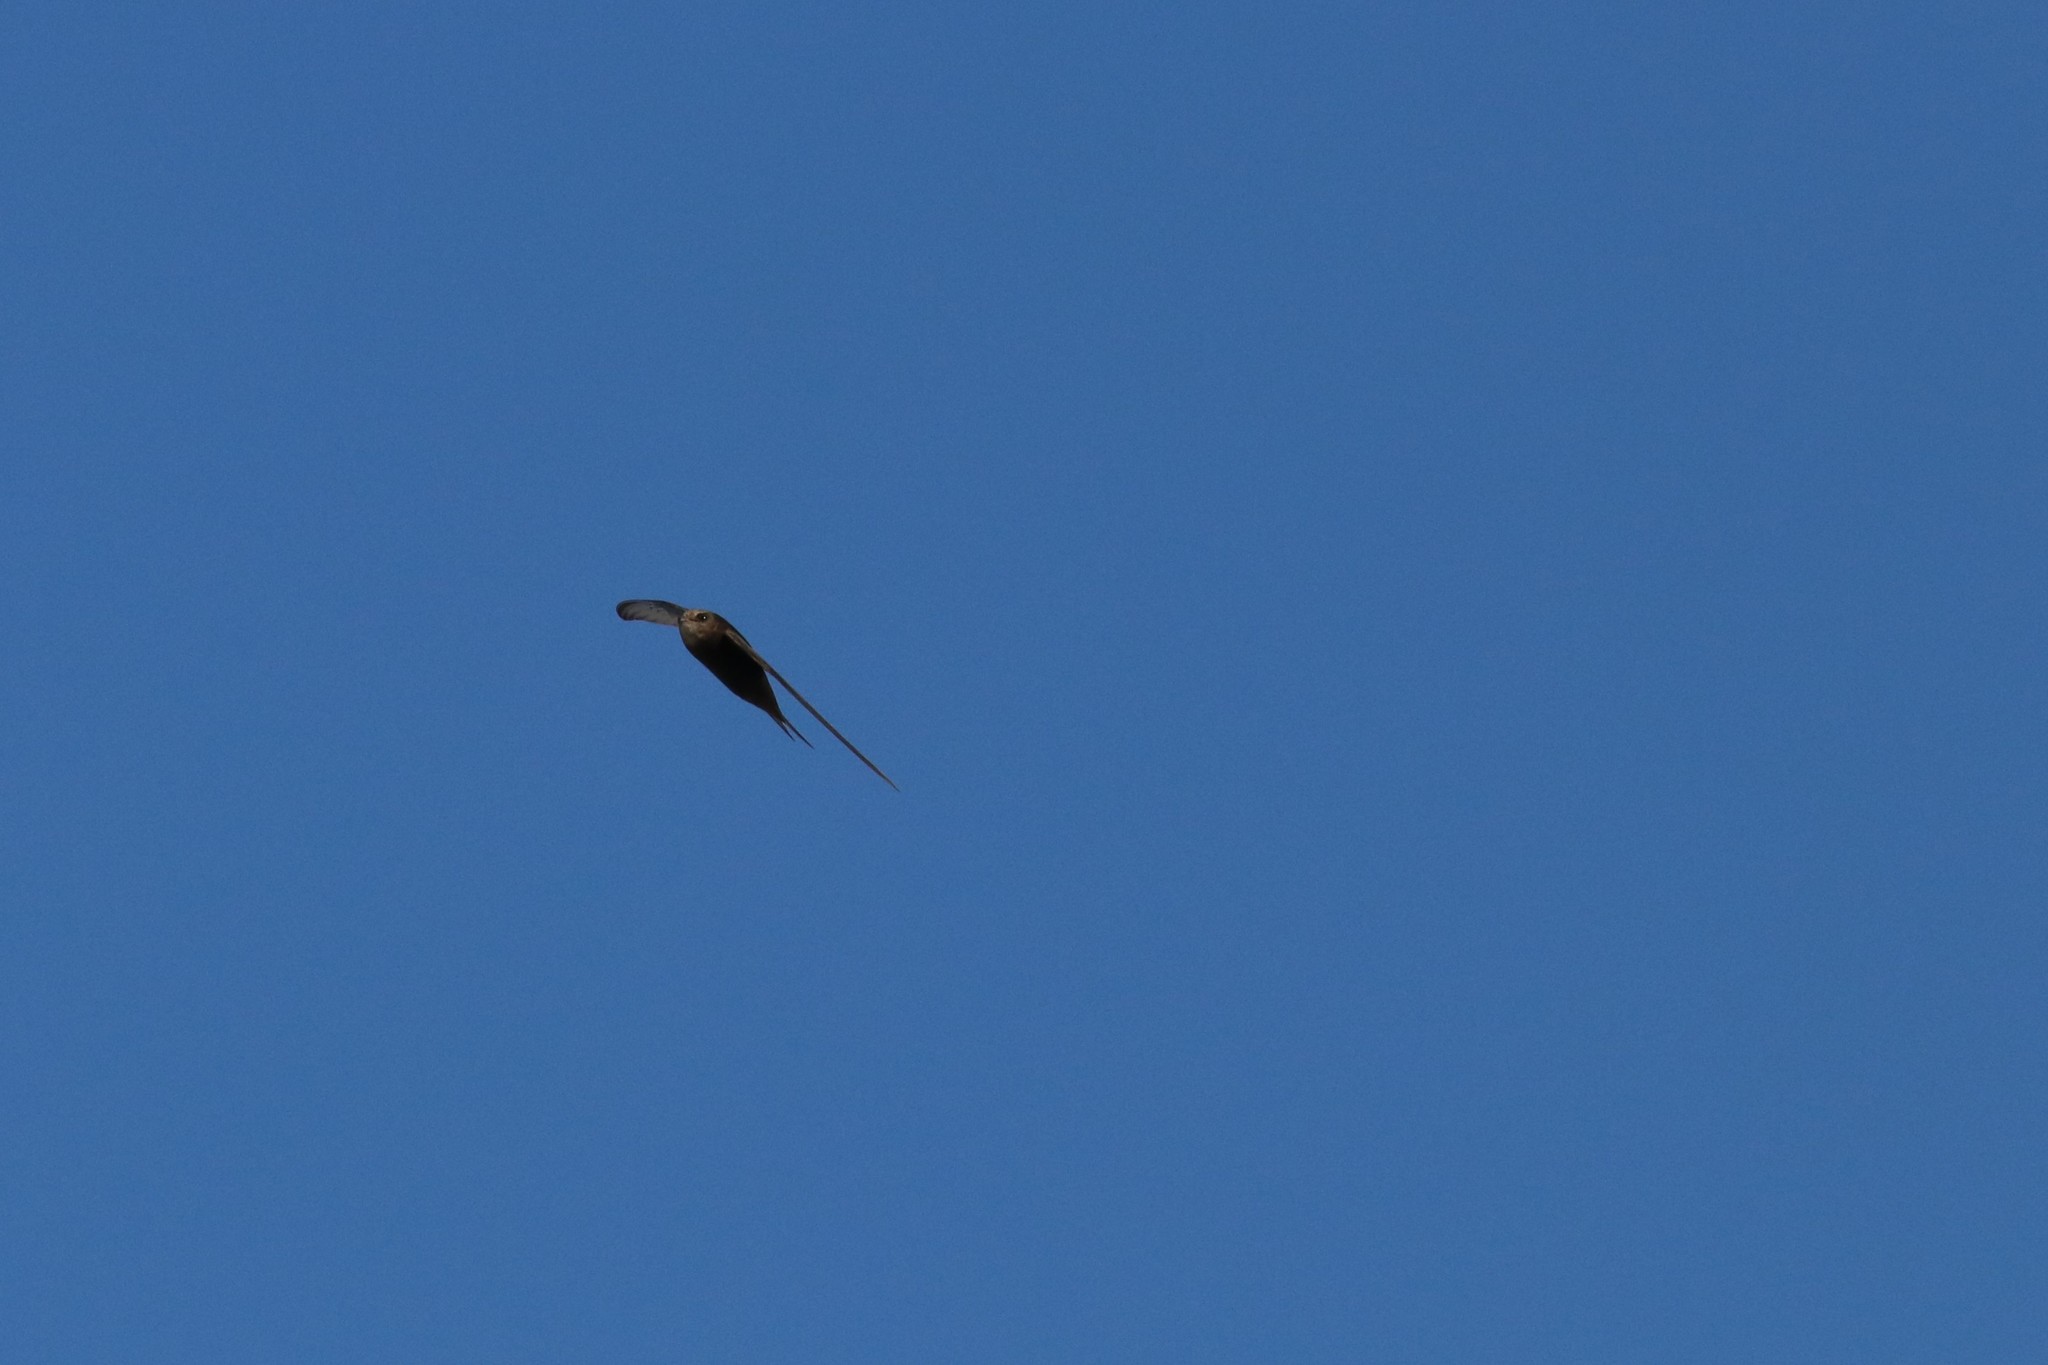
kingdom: Animalia
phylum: Chordata
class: Aves
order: Apodiformes
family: Apodidae
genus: Apus
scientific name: Apus apus
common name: Common swift
